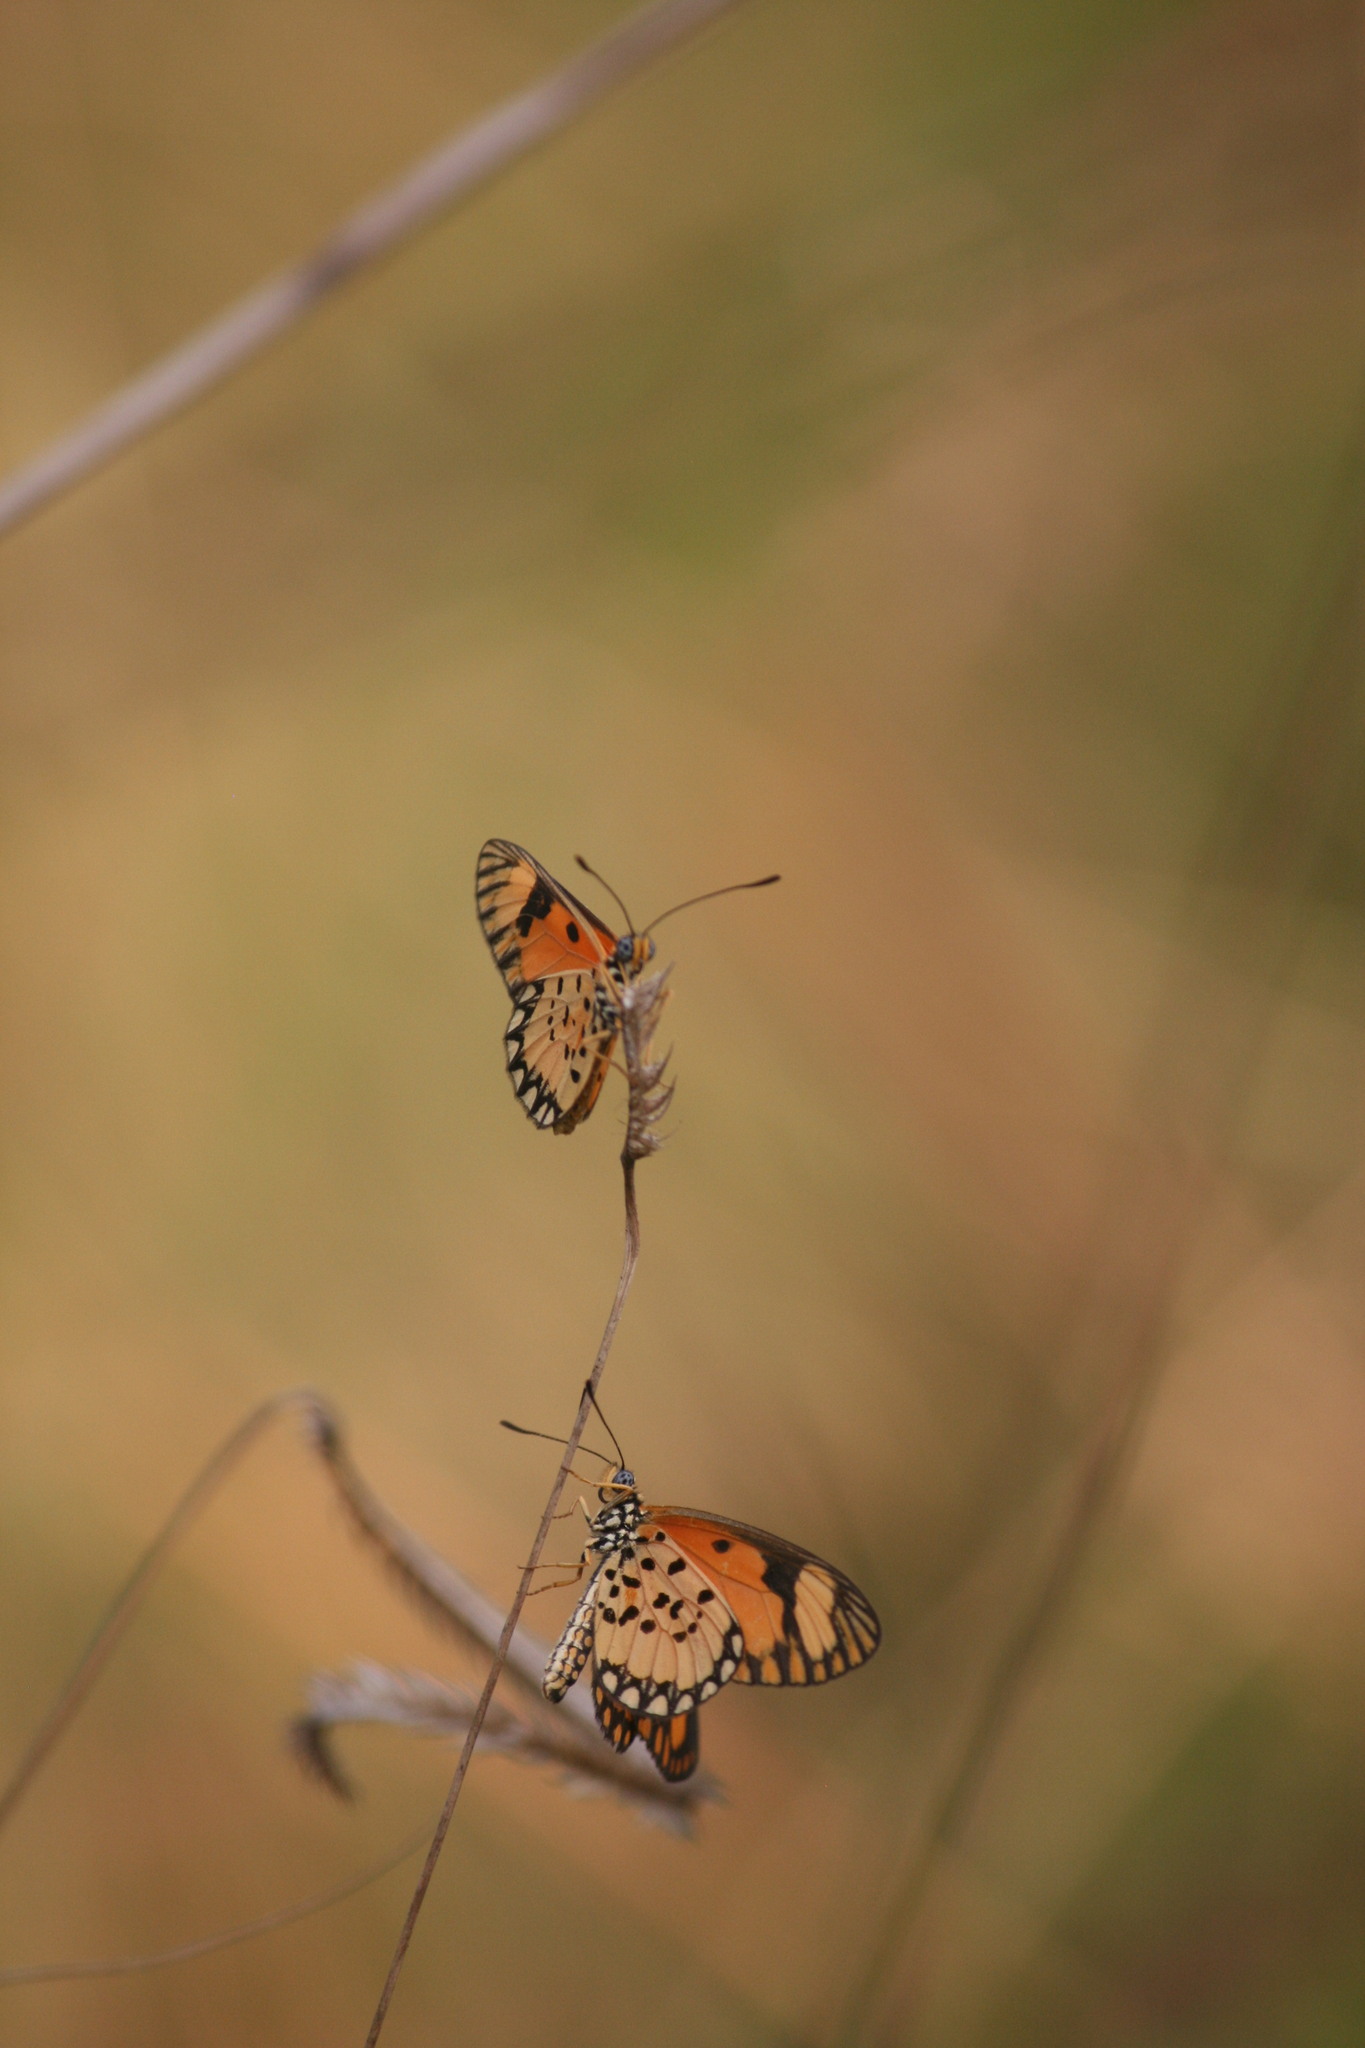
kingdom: Animalia
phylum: Arthropoda
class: Insecta
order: Lepidoptera
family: Nymphalidae
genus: Acraea
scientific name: Acraea Telchinia serena
